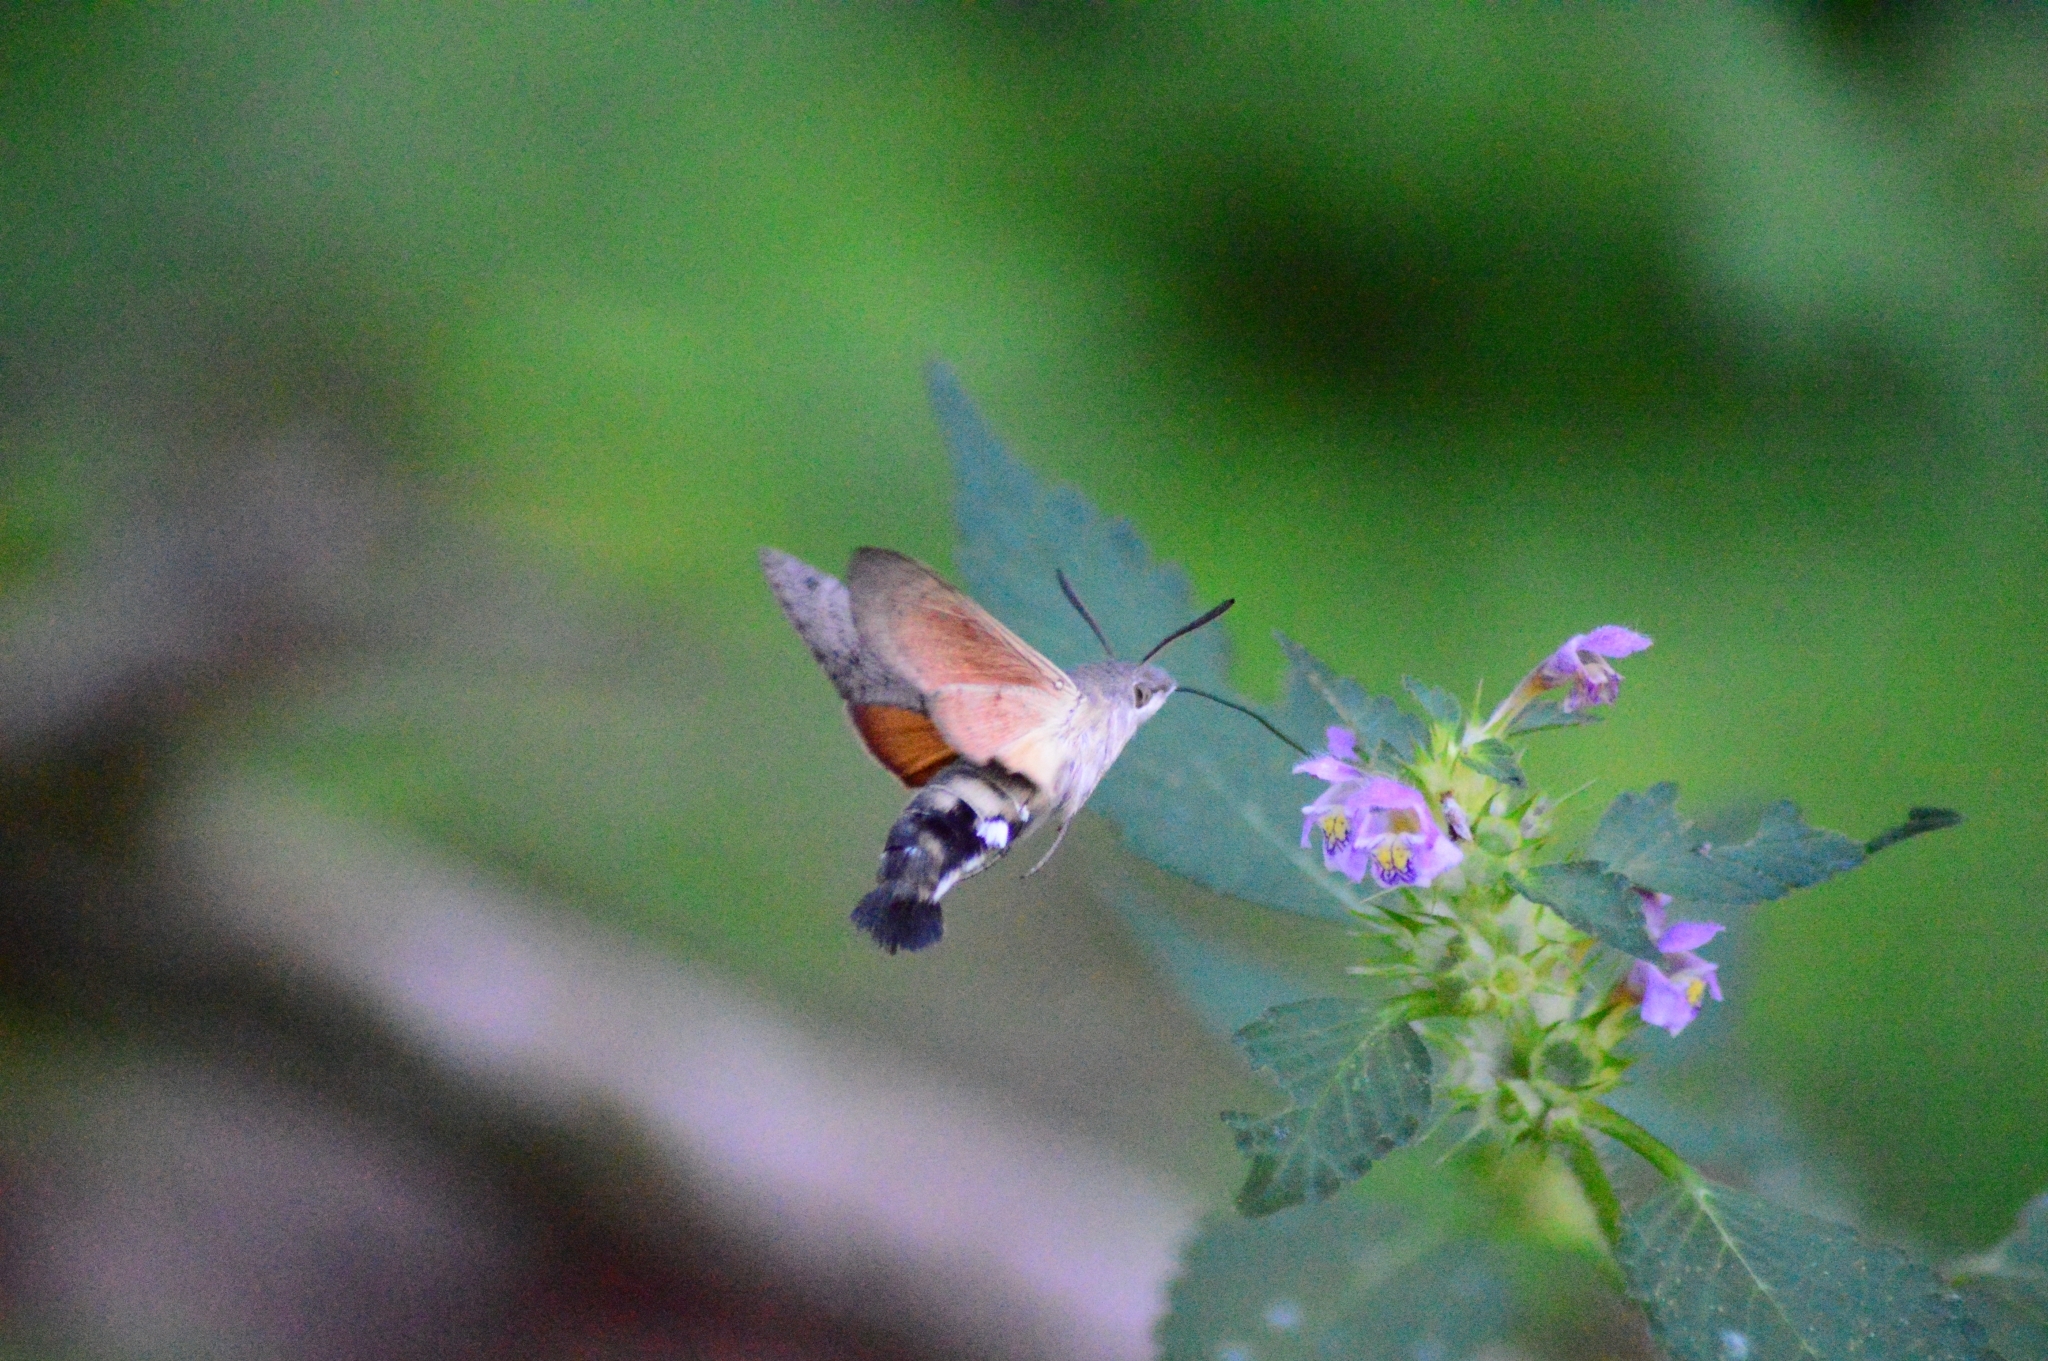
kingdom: Animalia
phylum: Arthropoda
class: Insecta
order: Lepidoptera
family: Sphingidae
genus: Macroglossum
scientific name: Macroglossum stellatarum
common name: Humming-bird hawk-moth
